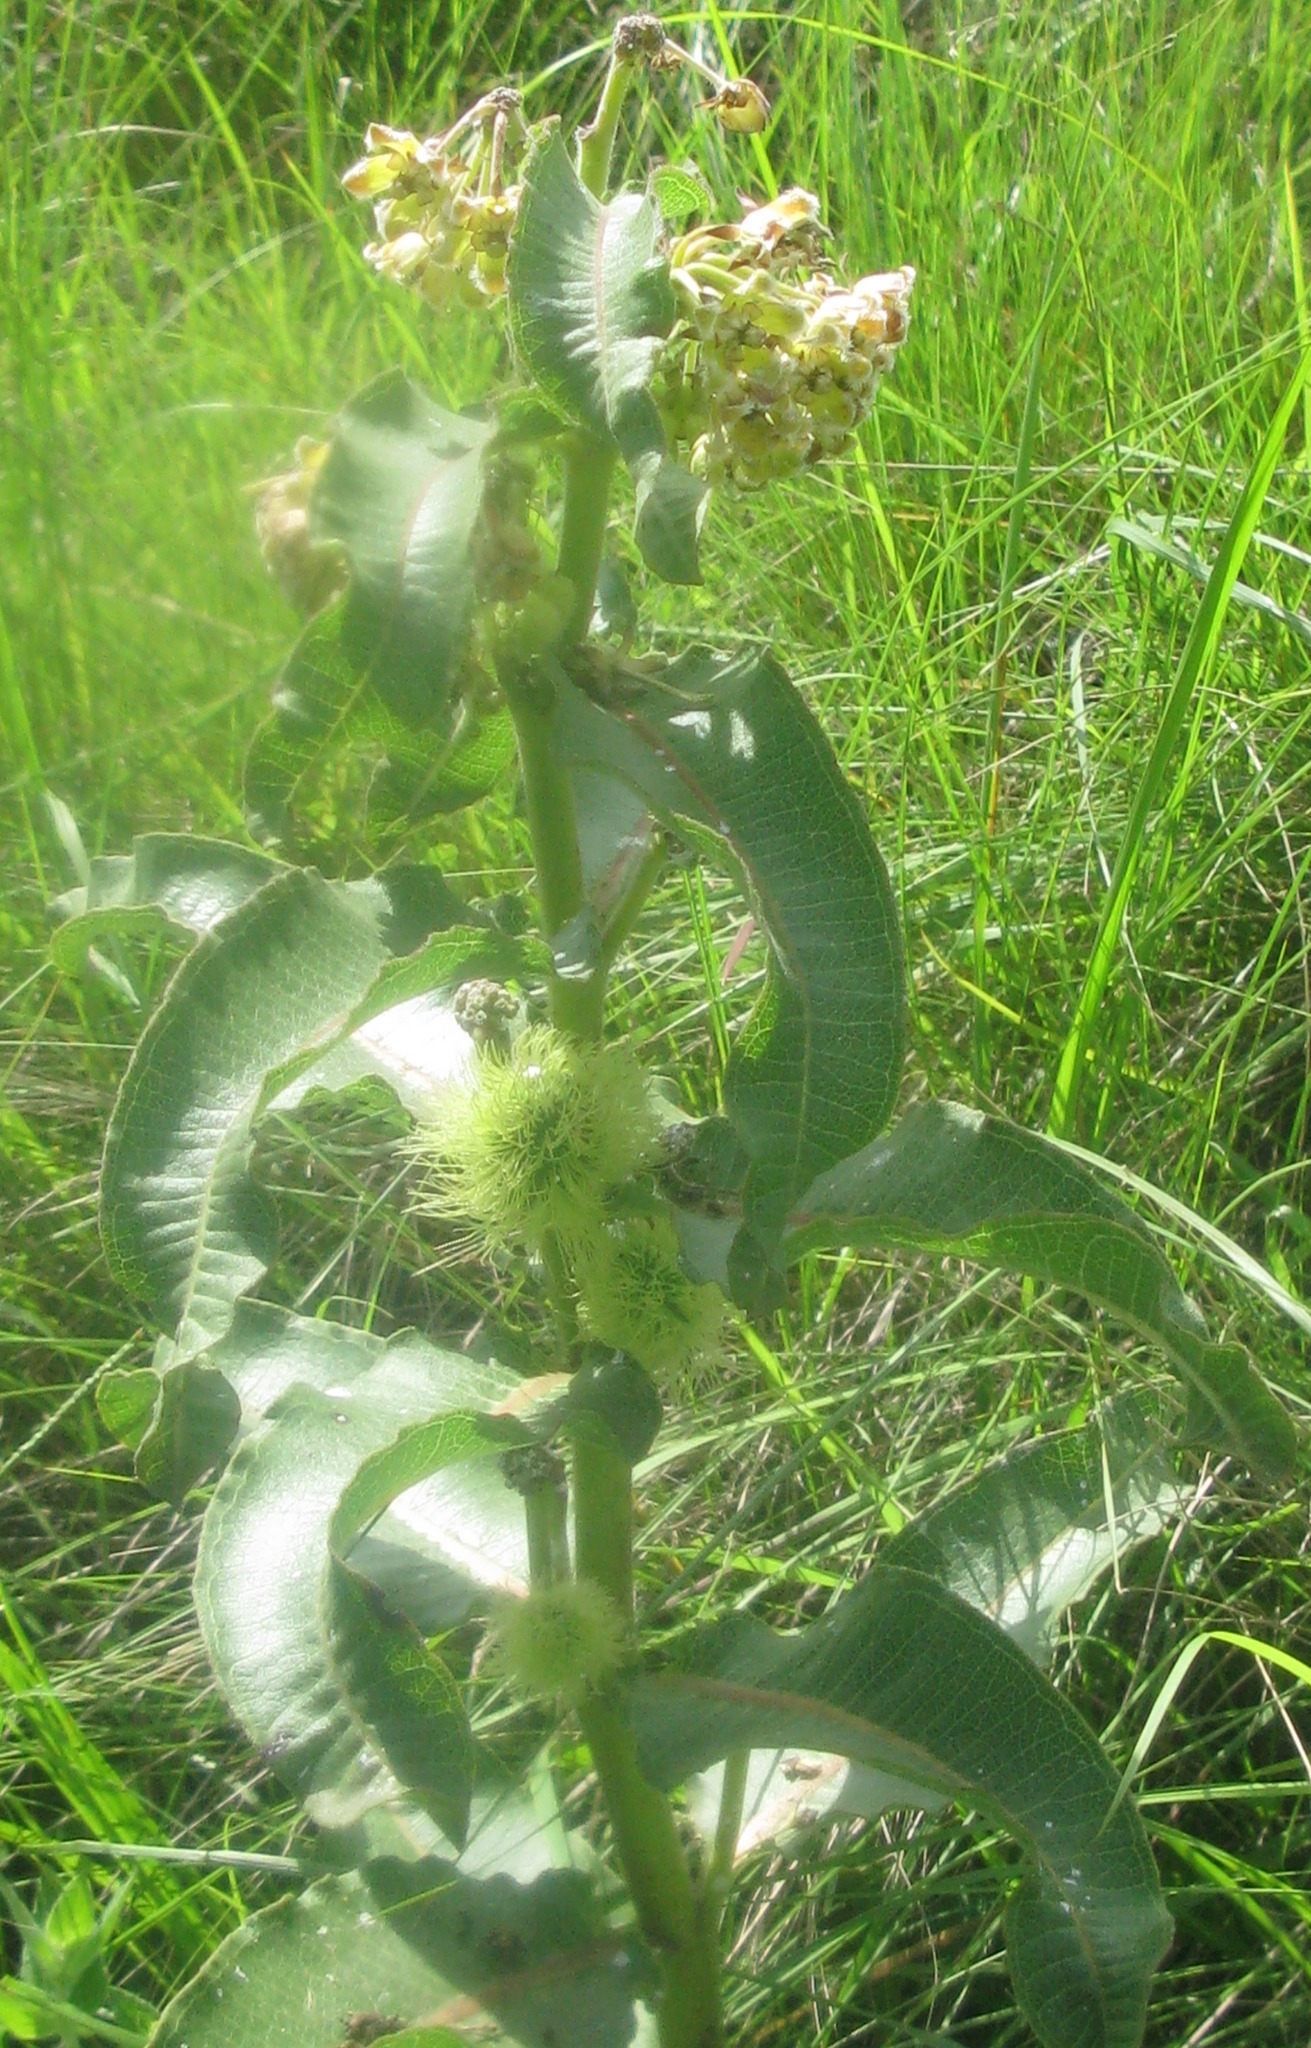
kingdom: Plantae
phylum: Tracheophyta
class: Magnoliopsida
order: Gentianales
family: Apocynaceae
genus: Xysmalobium
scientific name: Xysmalobium undulatum
